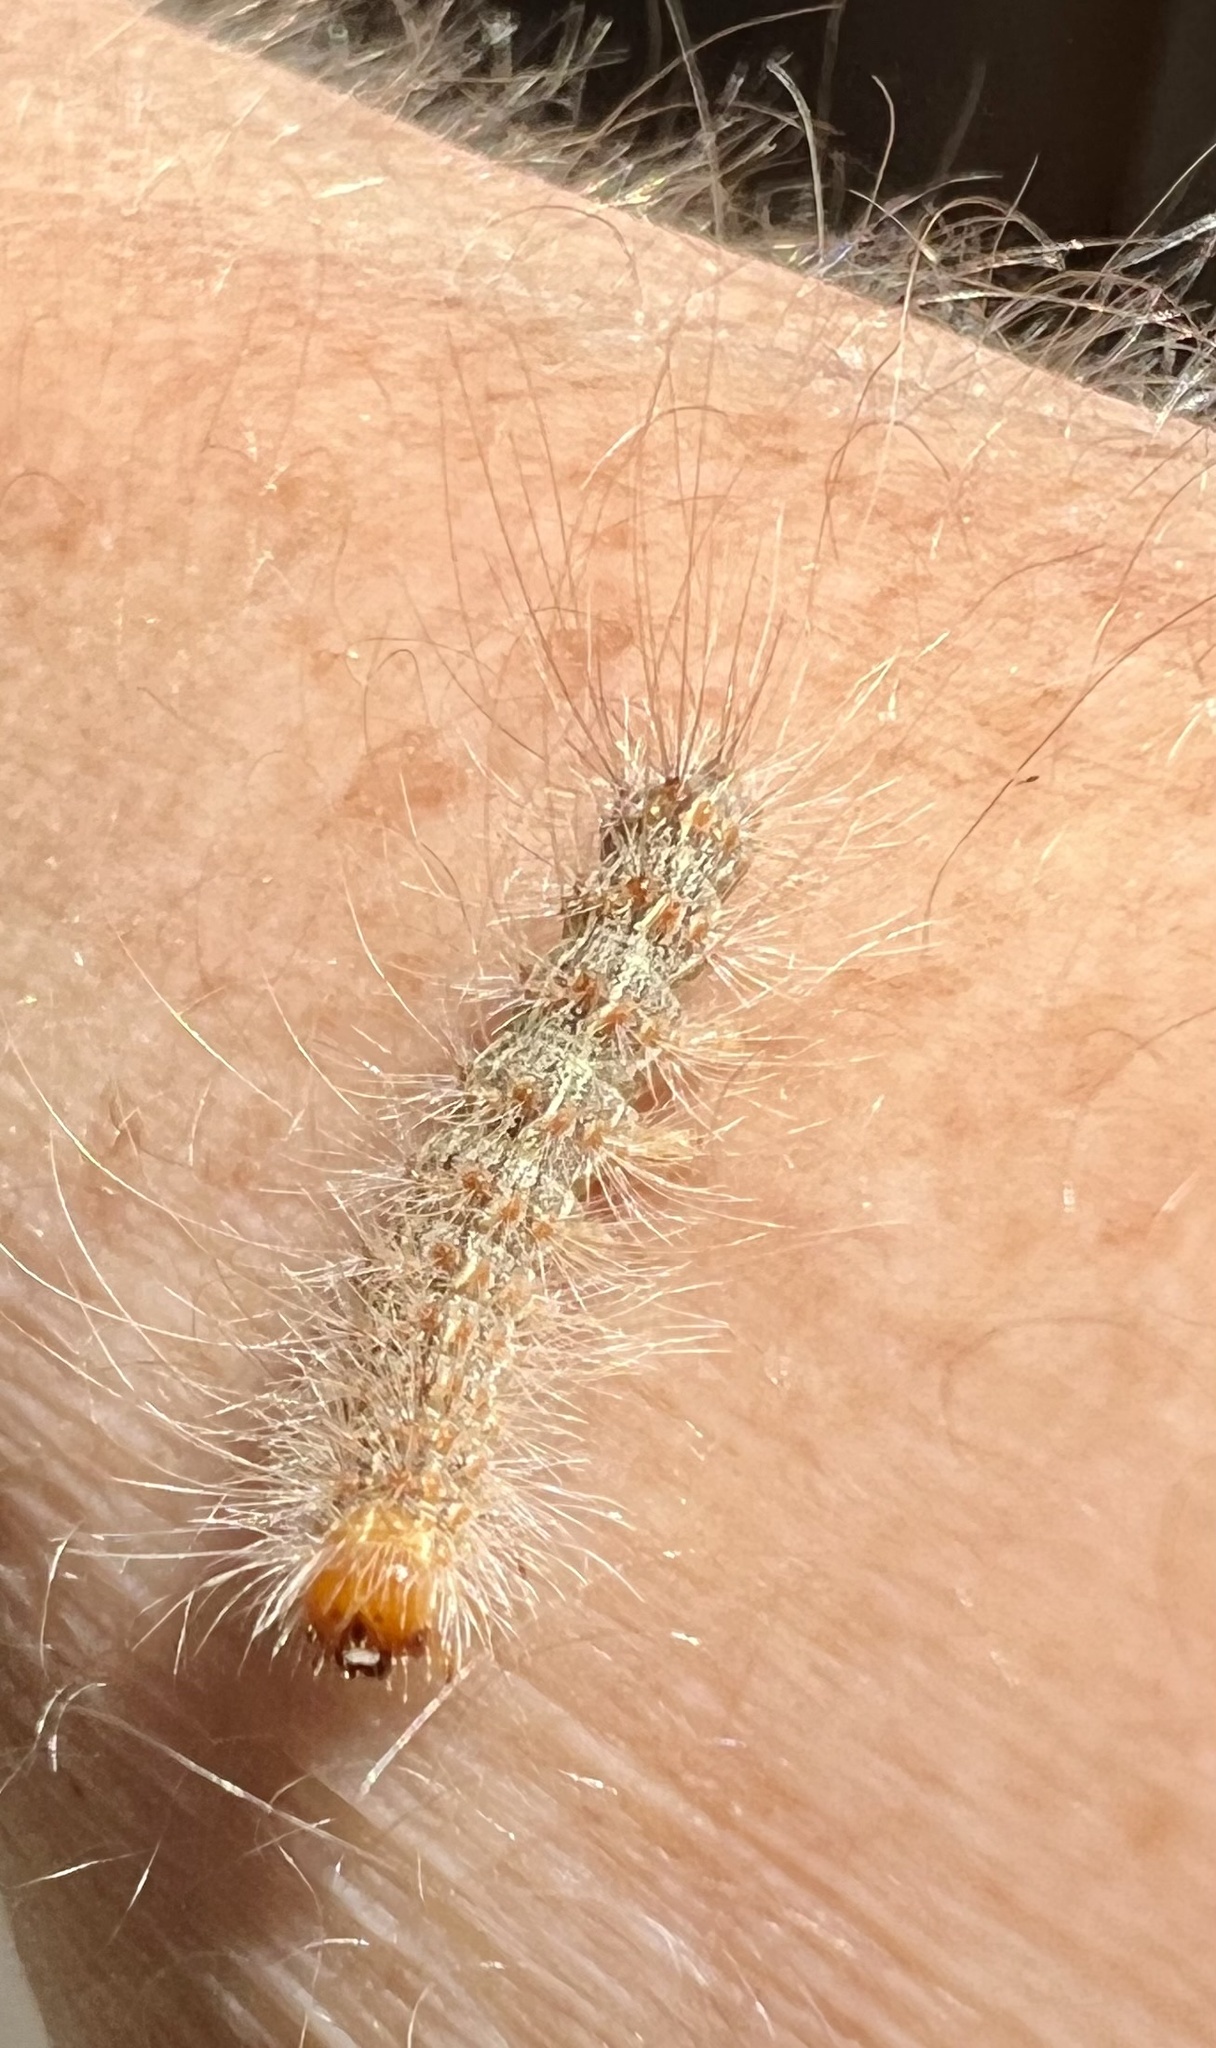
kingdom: Animalia
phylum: Arthropoda
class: Insecta
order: Lepidoptera
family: Erebidae
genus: Hyphantria
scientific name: Hyphantria cunea
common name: American white moth
